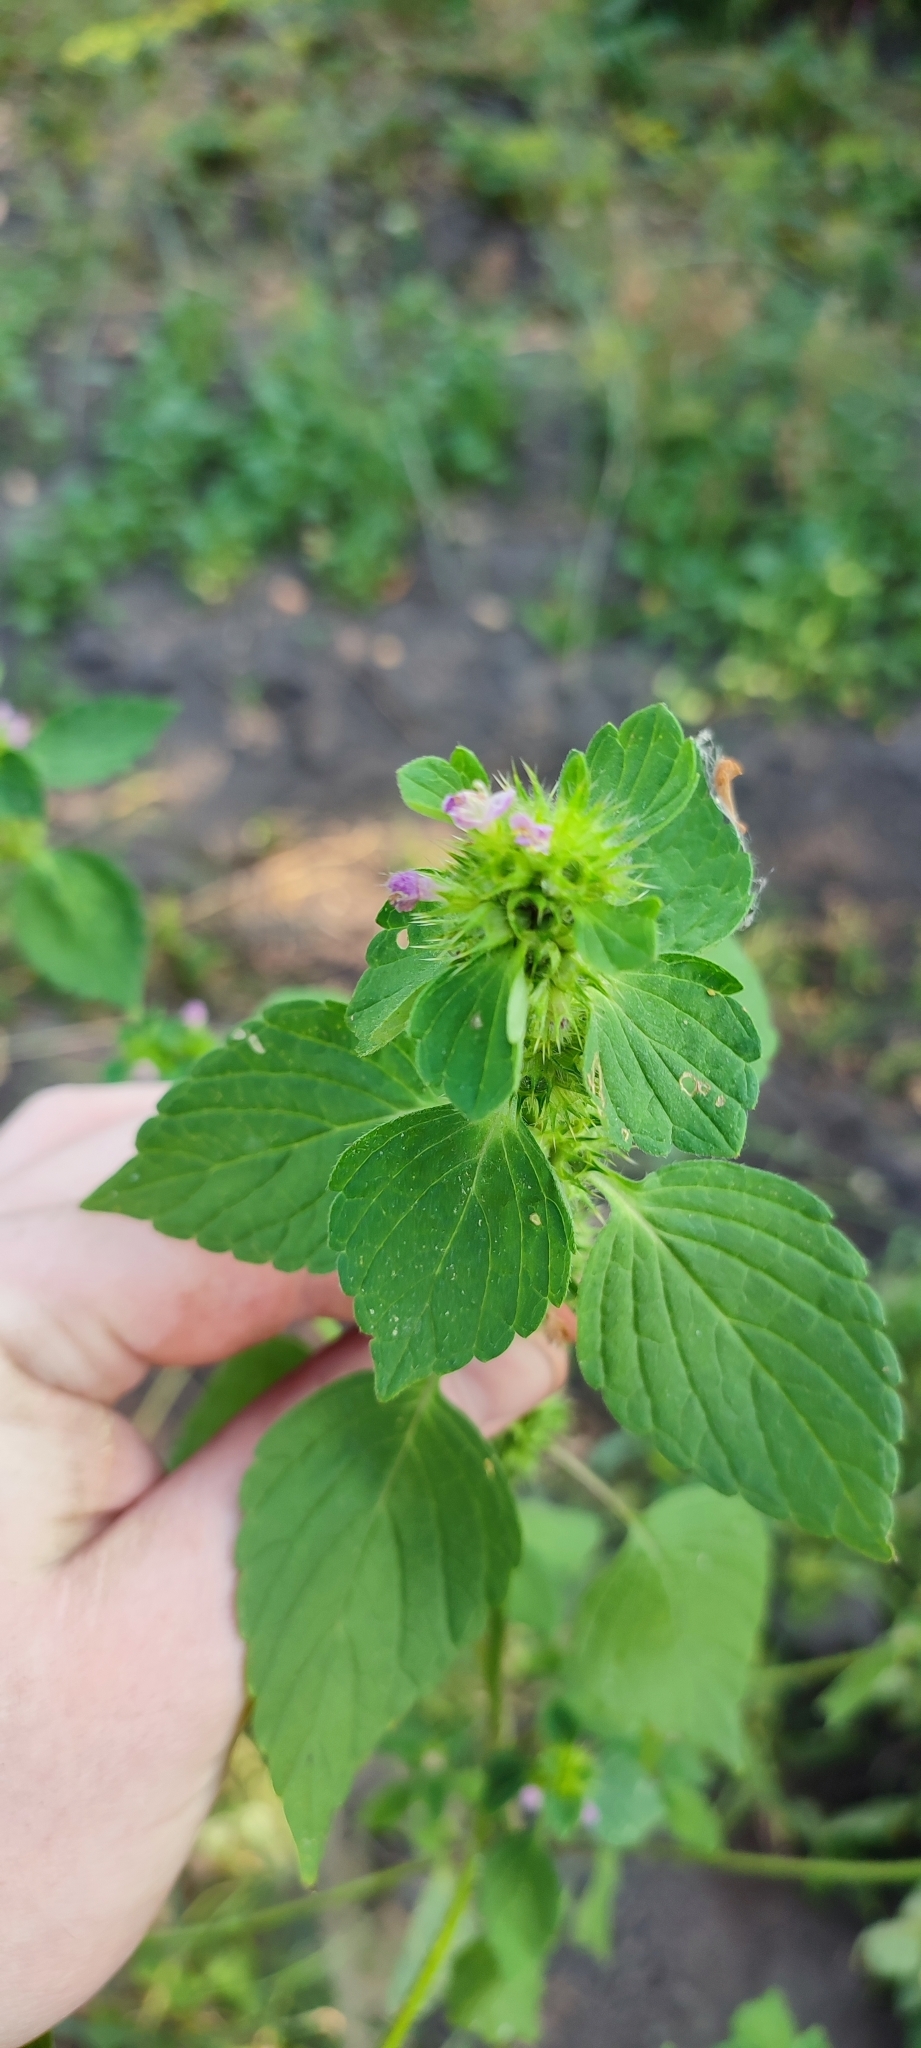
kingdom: Plantae
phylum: Tracheophyta
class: Magnoliopsida
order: Lamiales
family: Lamiaceae
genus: Galeopsis
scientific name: Galeopsis bifida
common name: Bifid hemp-nettle
